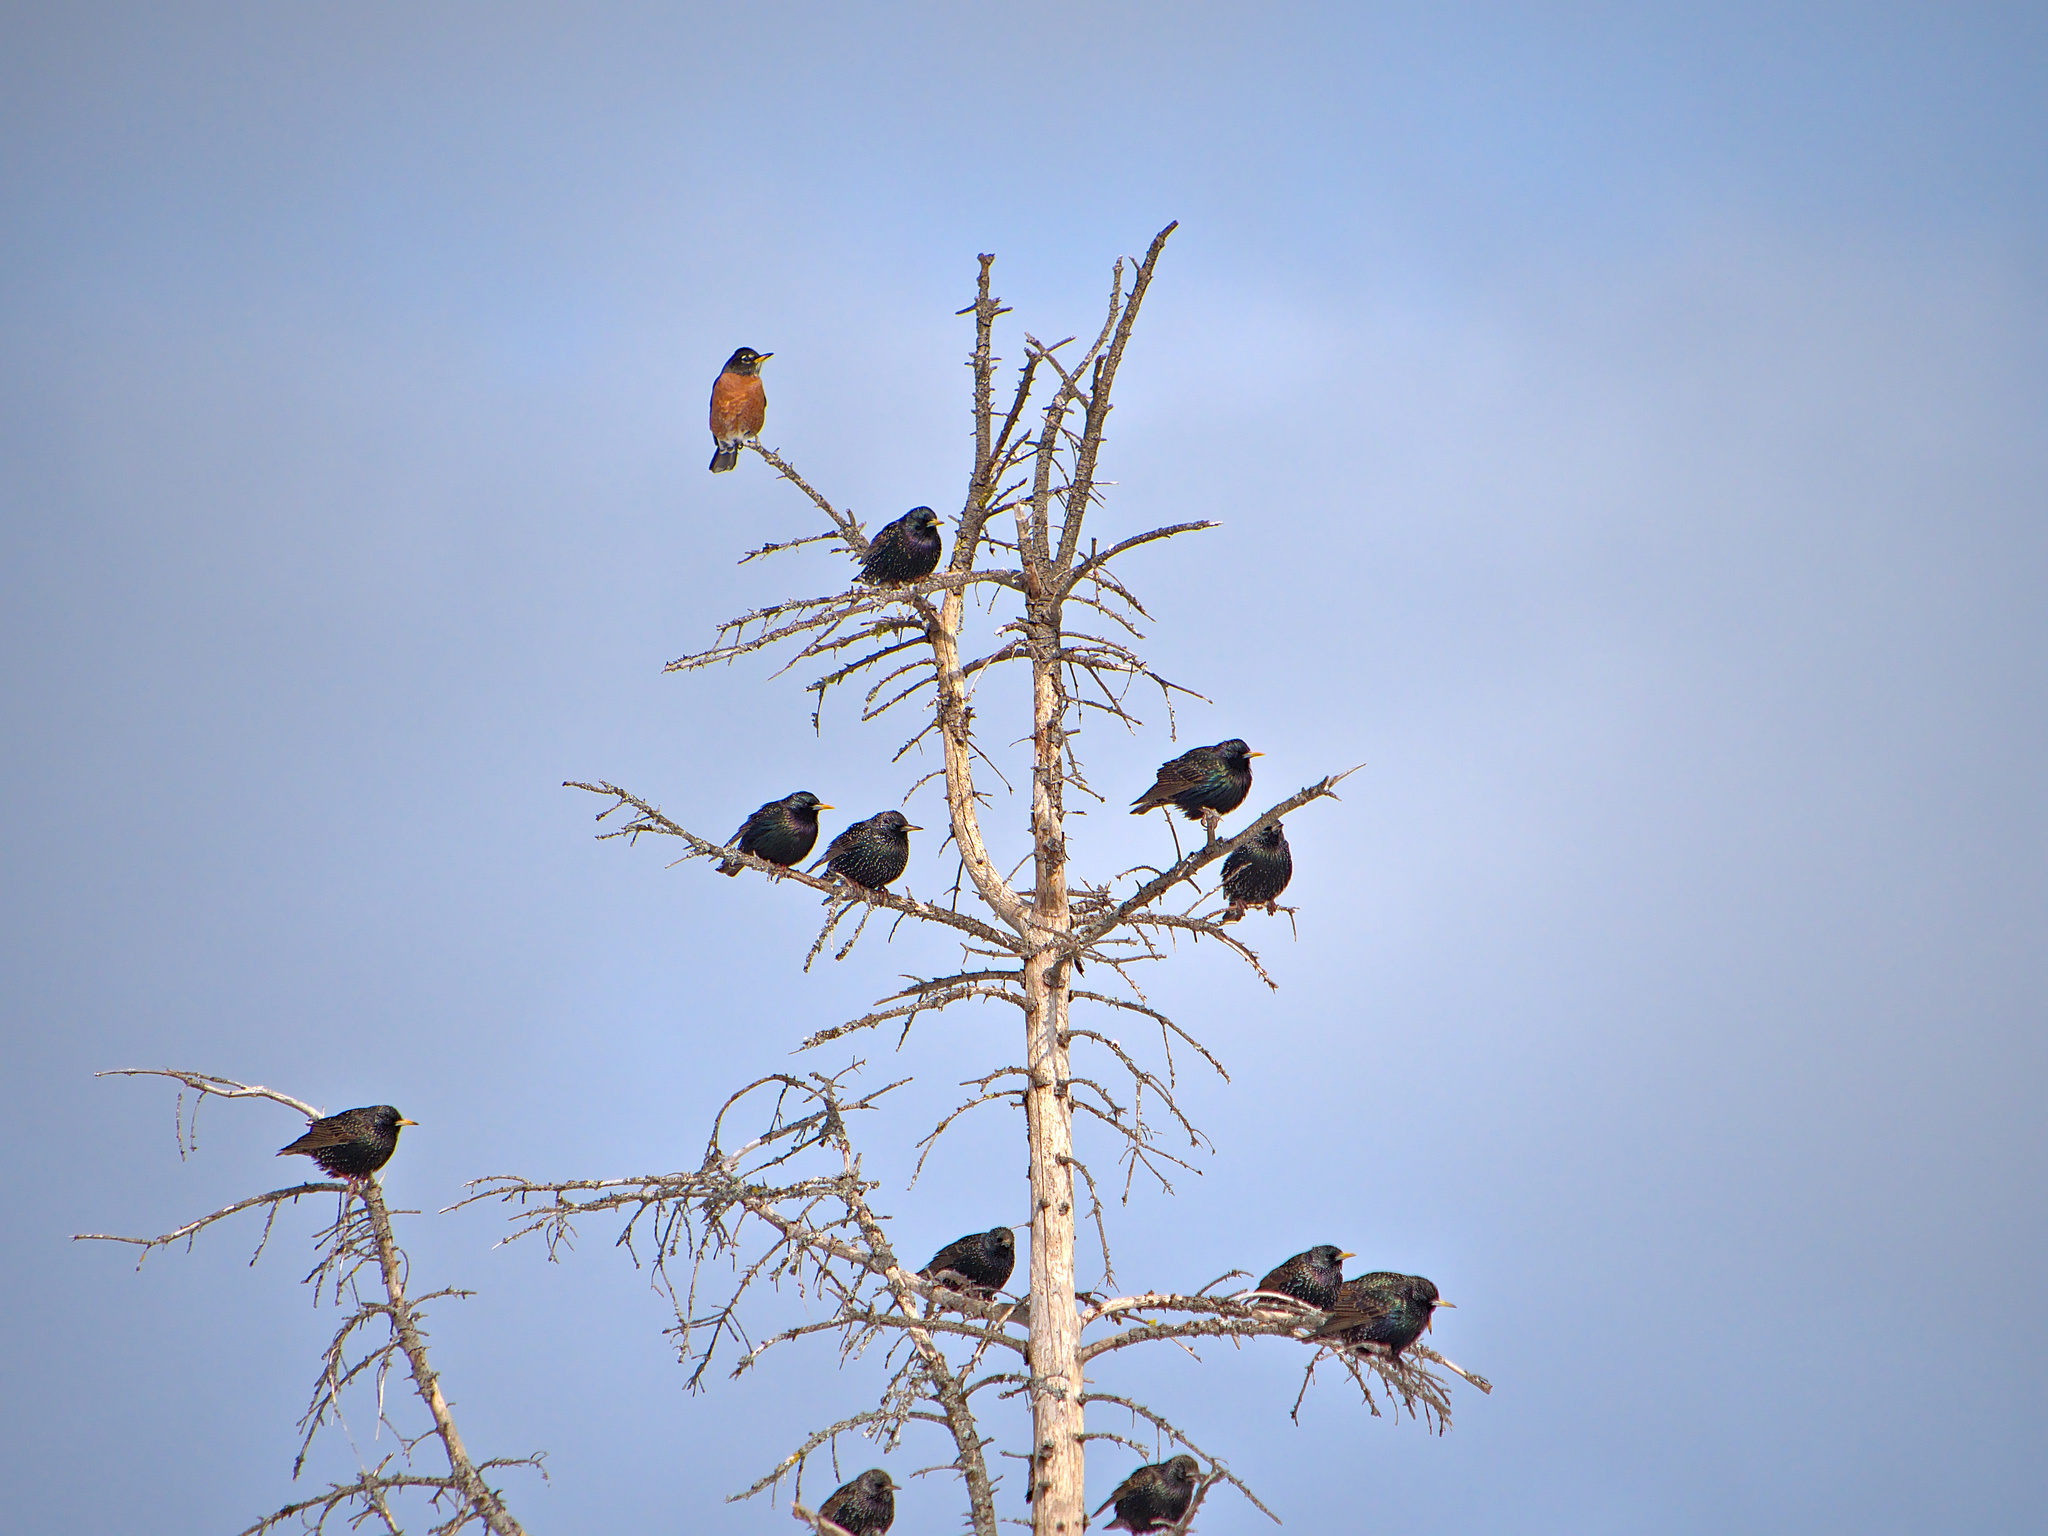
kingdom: Animalia
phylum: Chordata
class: Aves
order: Passeriformes
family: Turdidae
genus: Turdus
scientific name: Turdus migratorius
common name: American robin
